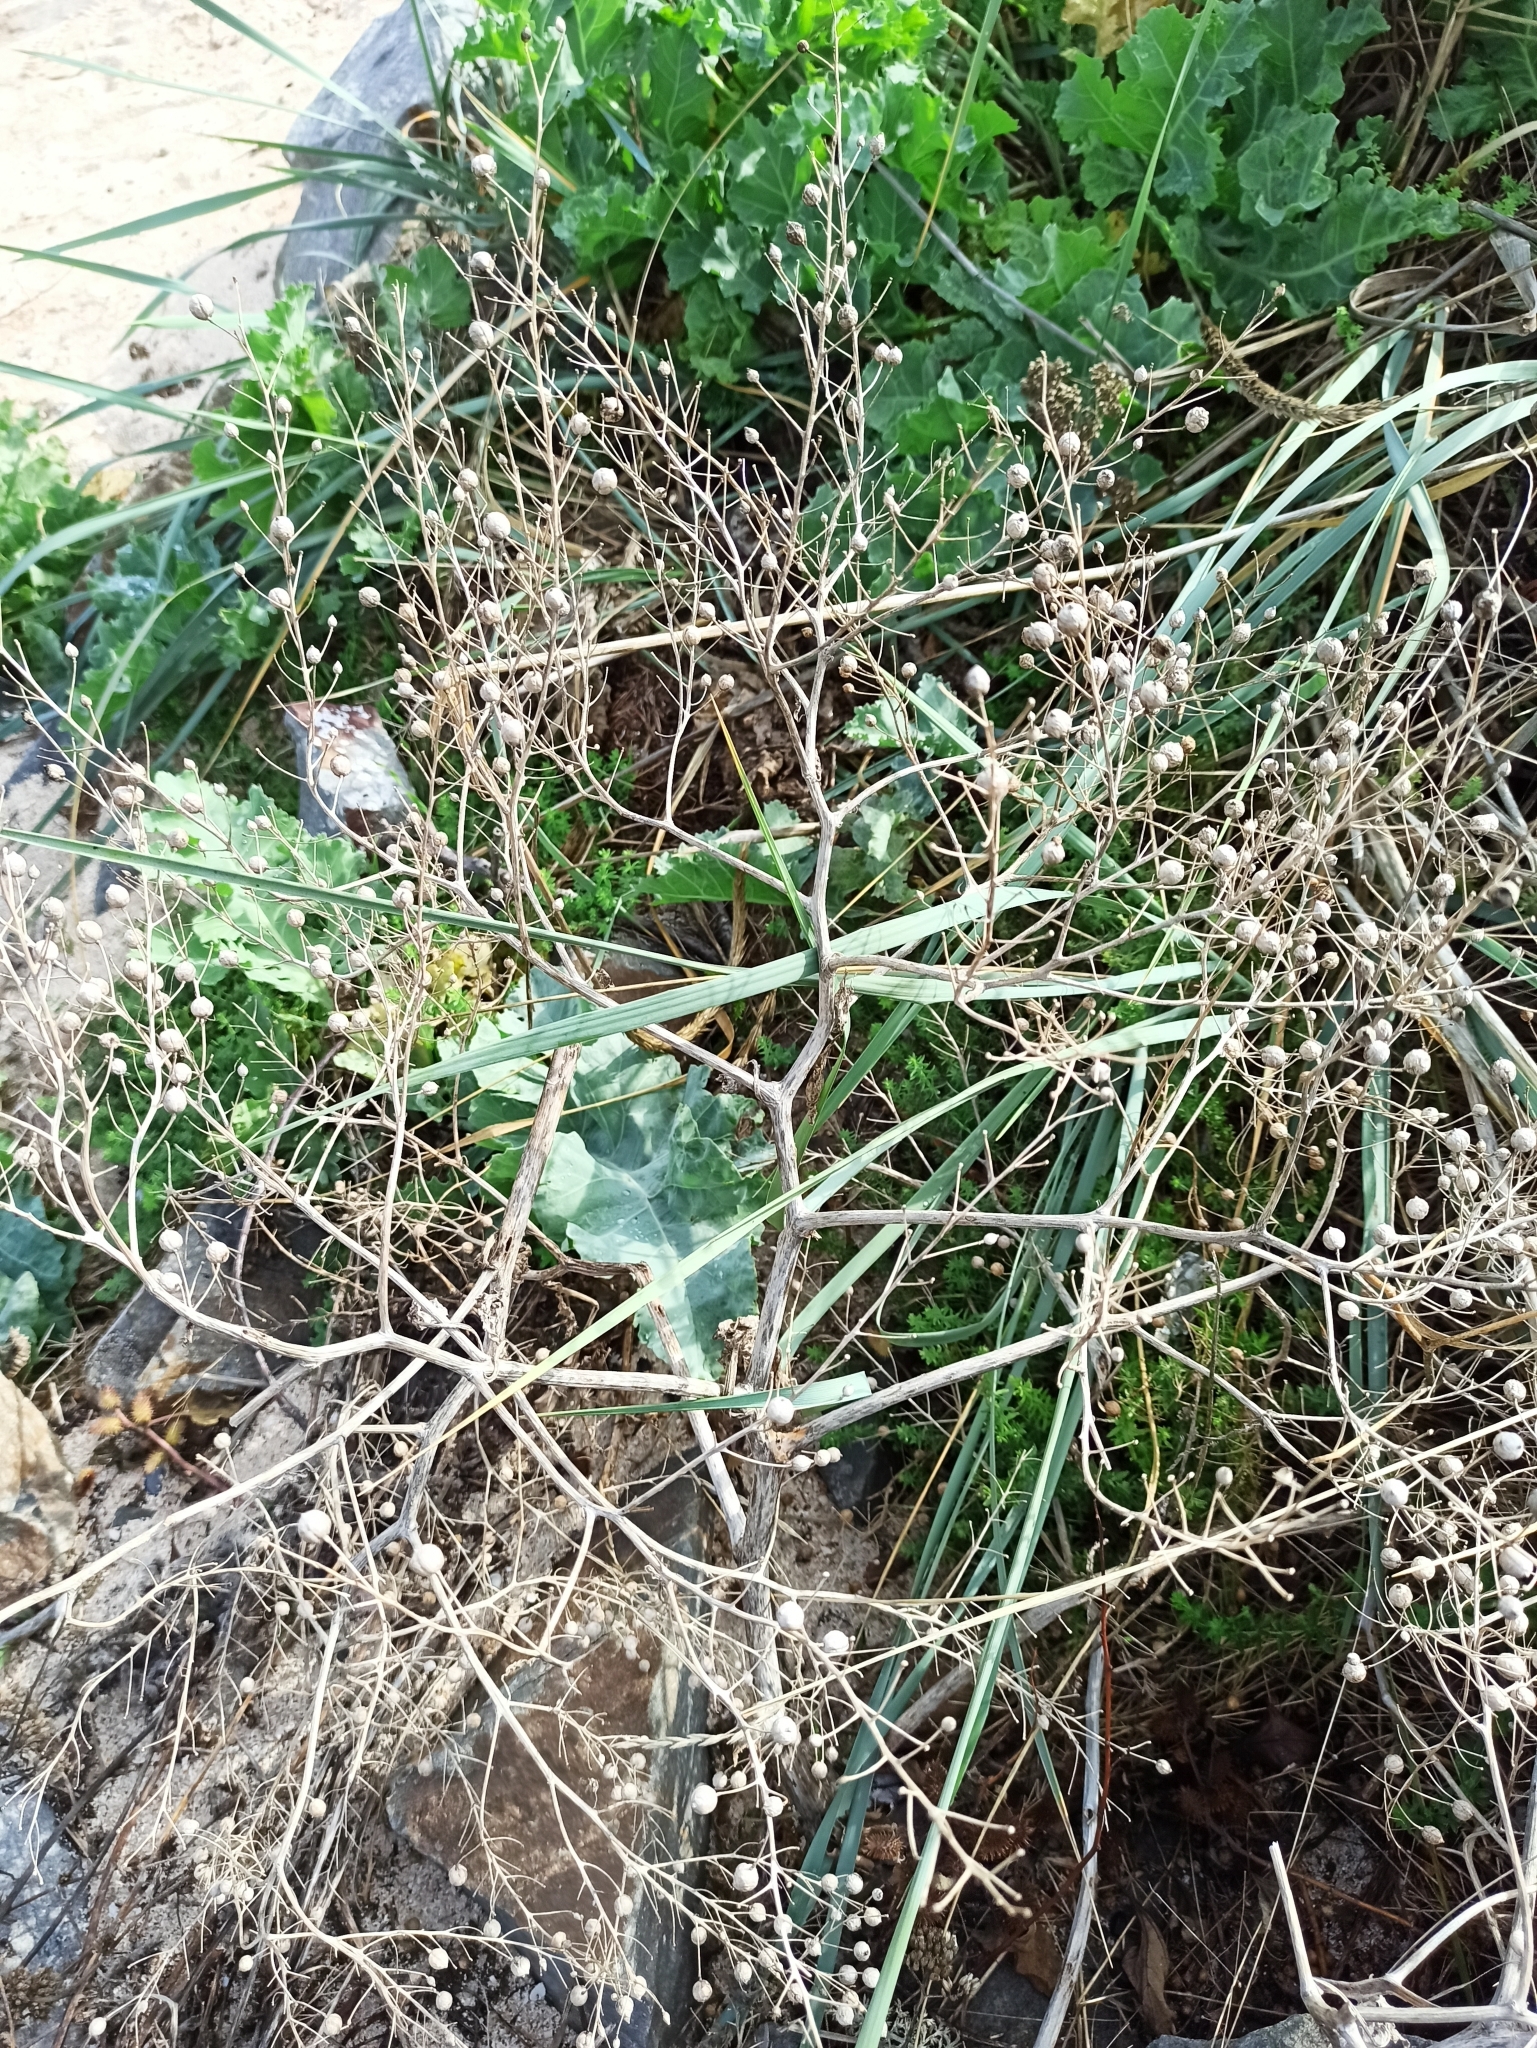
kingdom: Plantae
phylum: Tracheophyta
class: Magnoliopsida
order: Brassicales
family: Brassicaceae
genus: Crambe
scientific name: Crambe maritima
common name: Sea-kale
